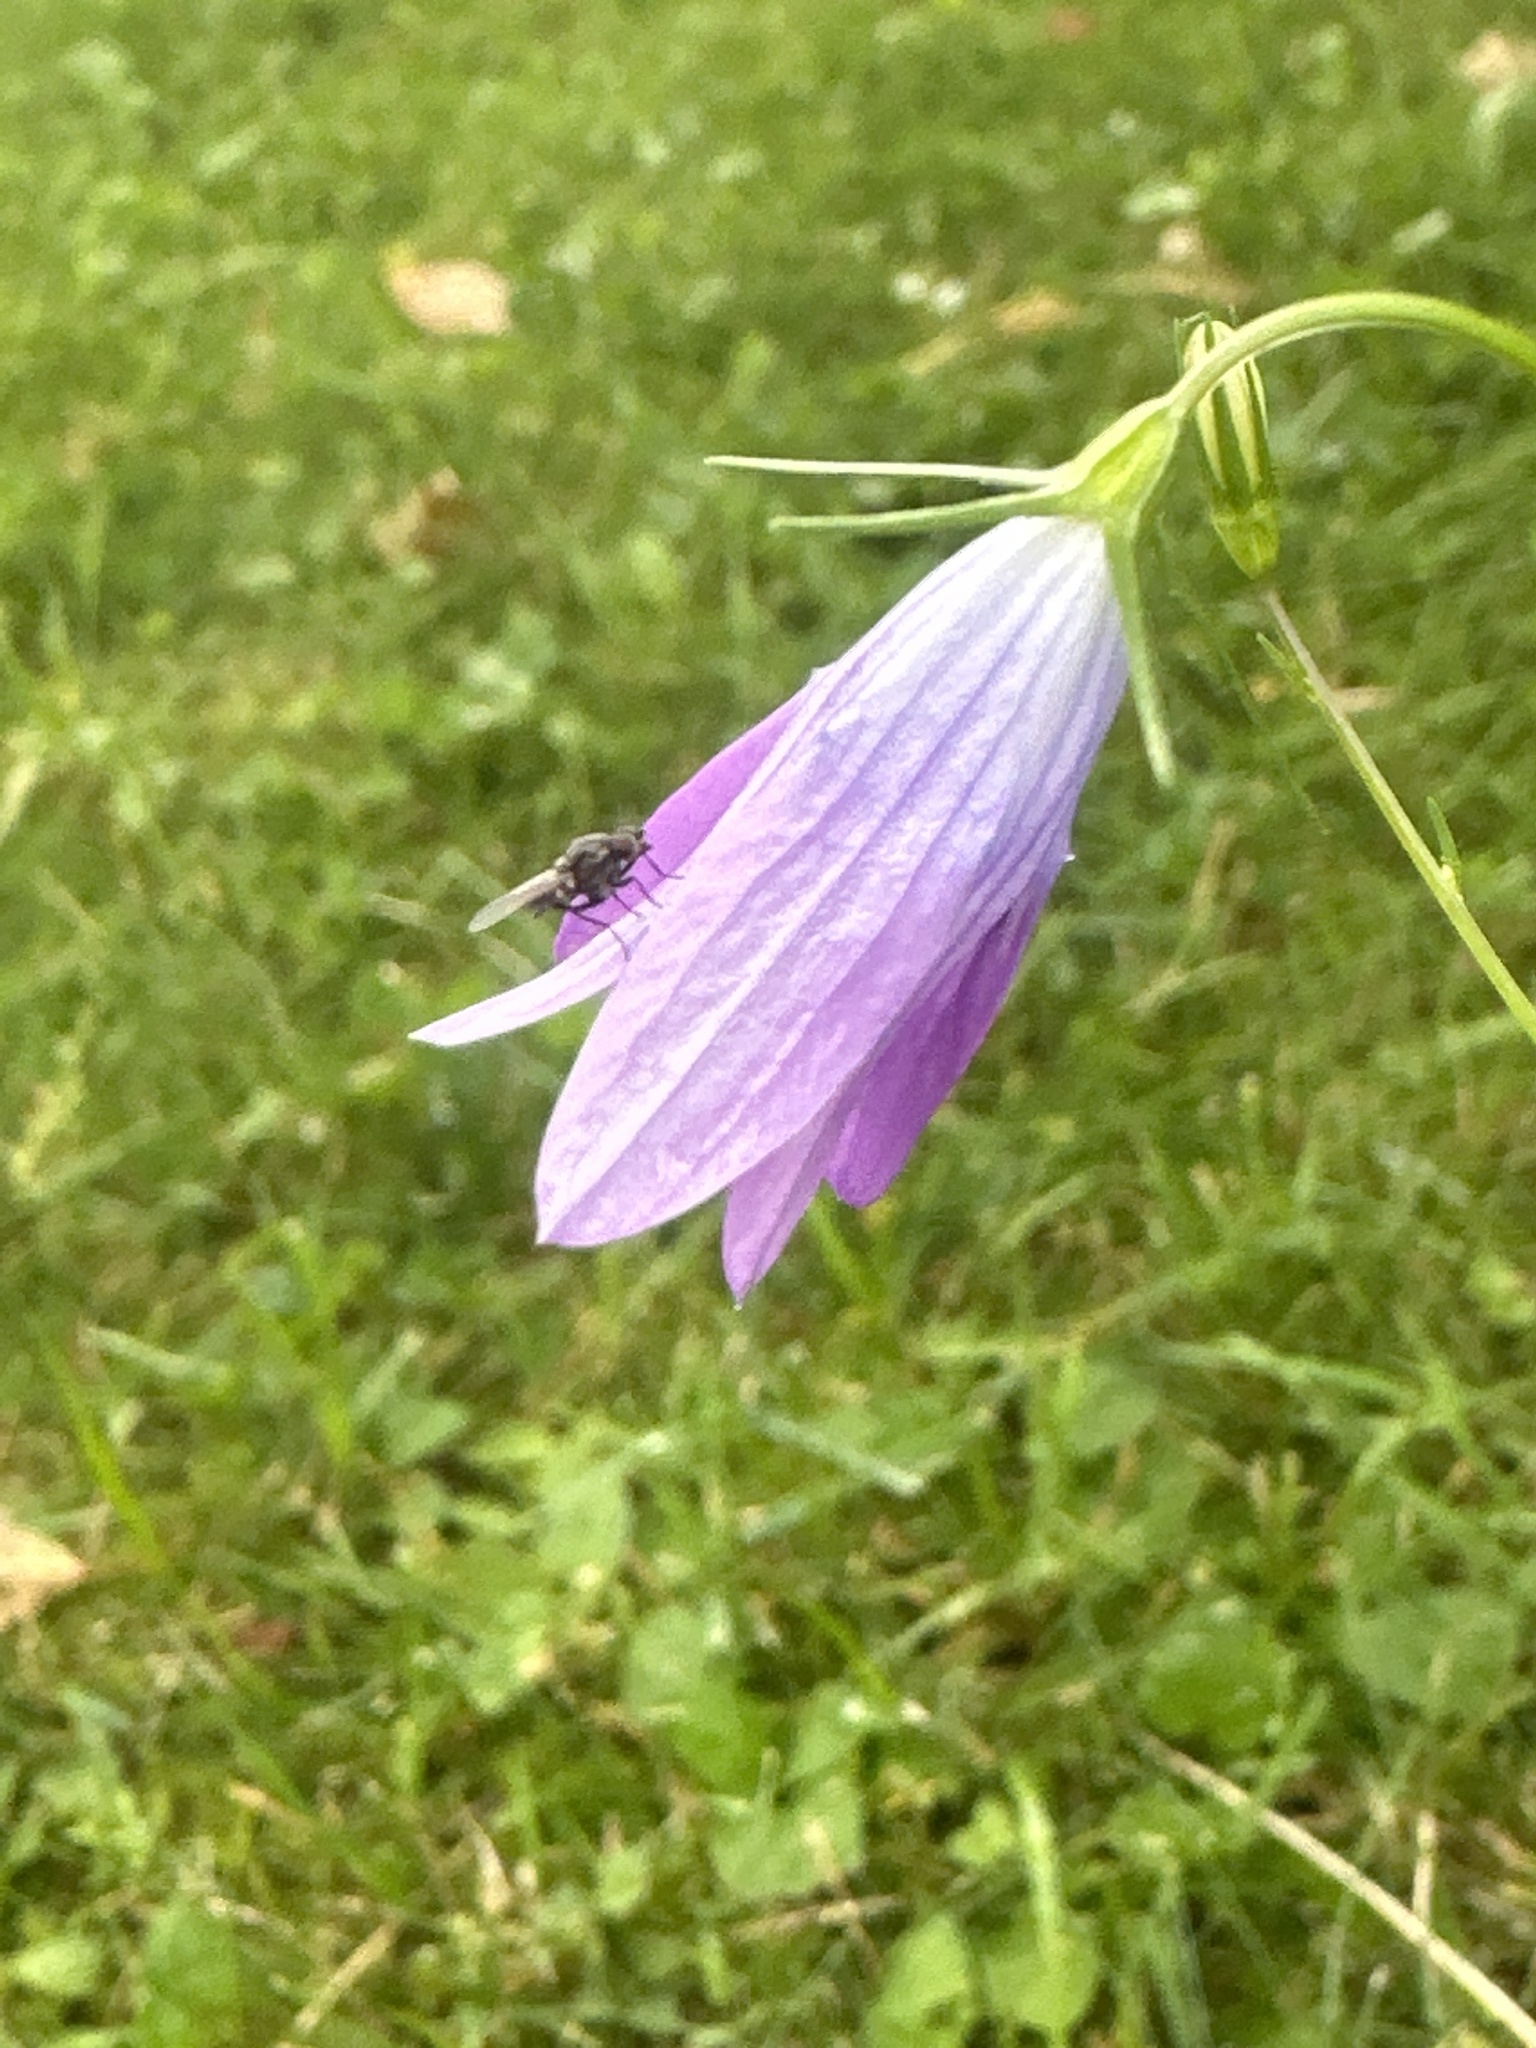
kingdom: Plantae
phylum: Tracheophyta
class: Magnoliopsida
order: Asterales
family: Campanulaceae
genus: Campanula
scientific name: Campanula patula
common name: Spreading bellflower
